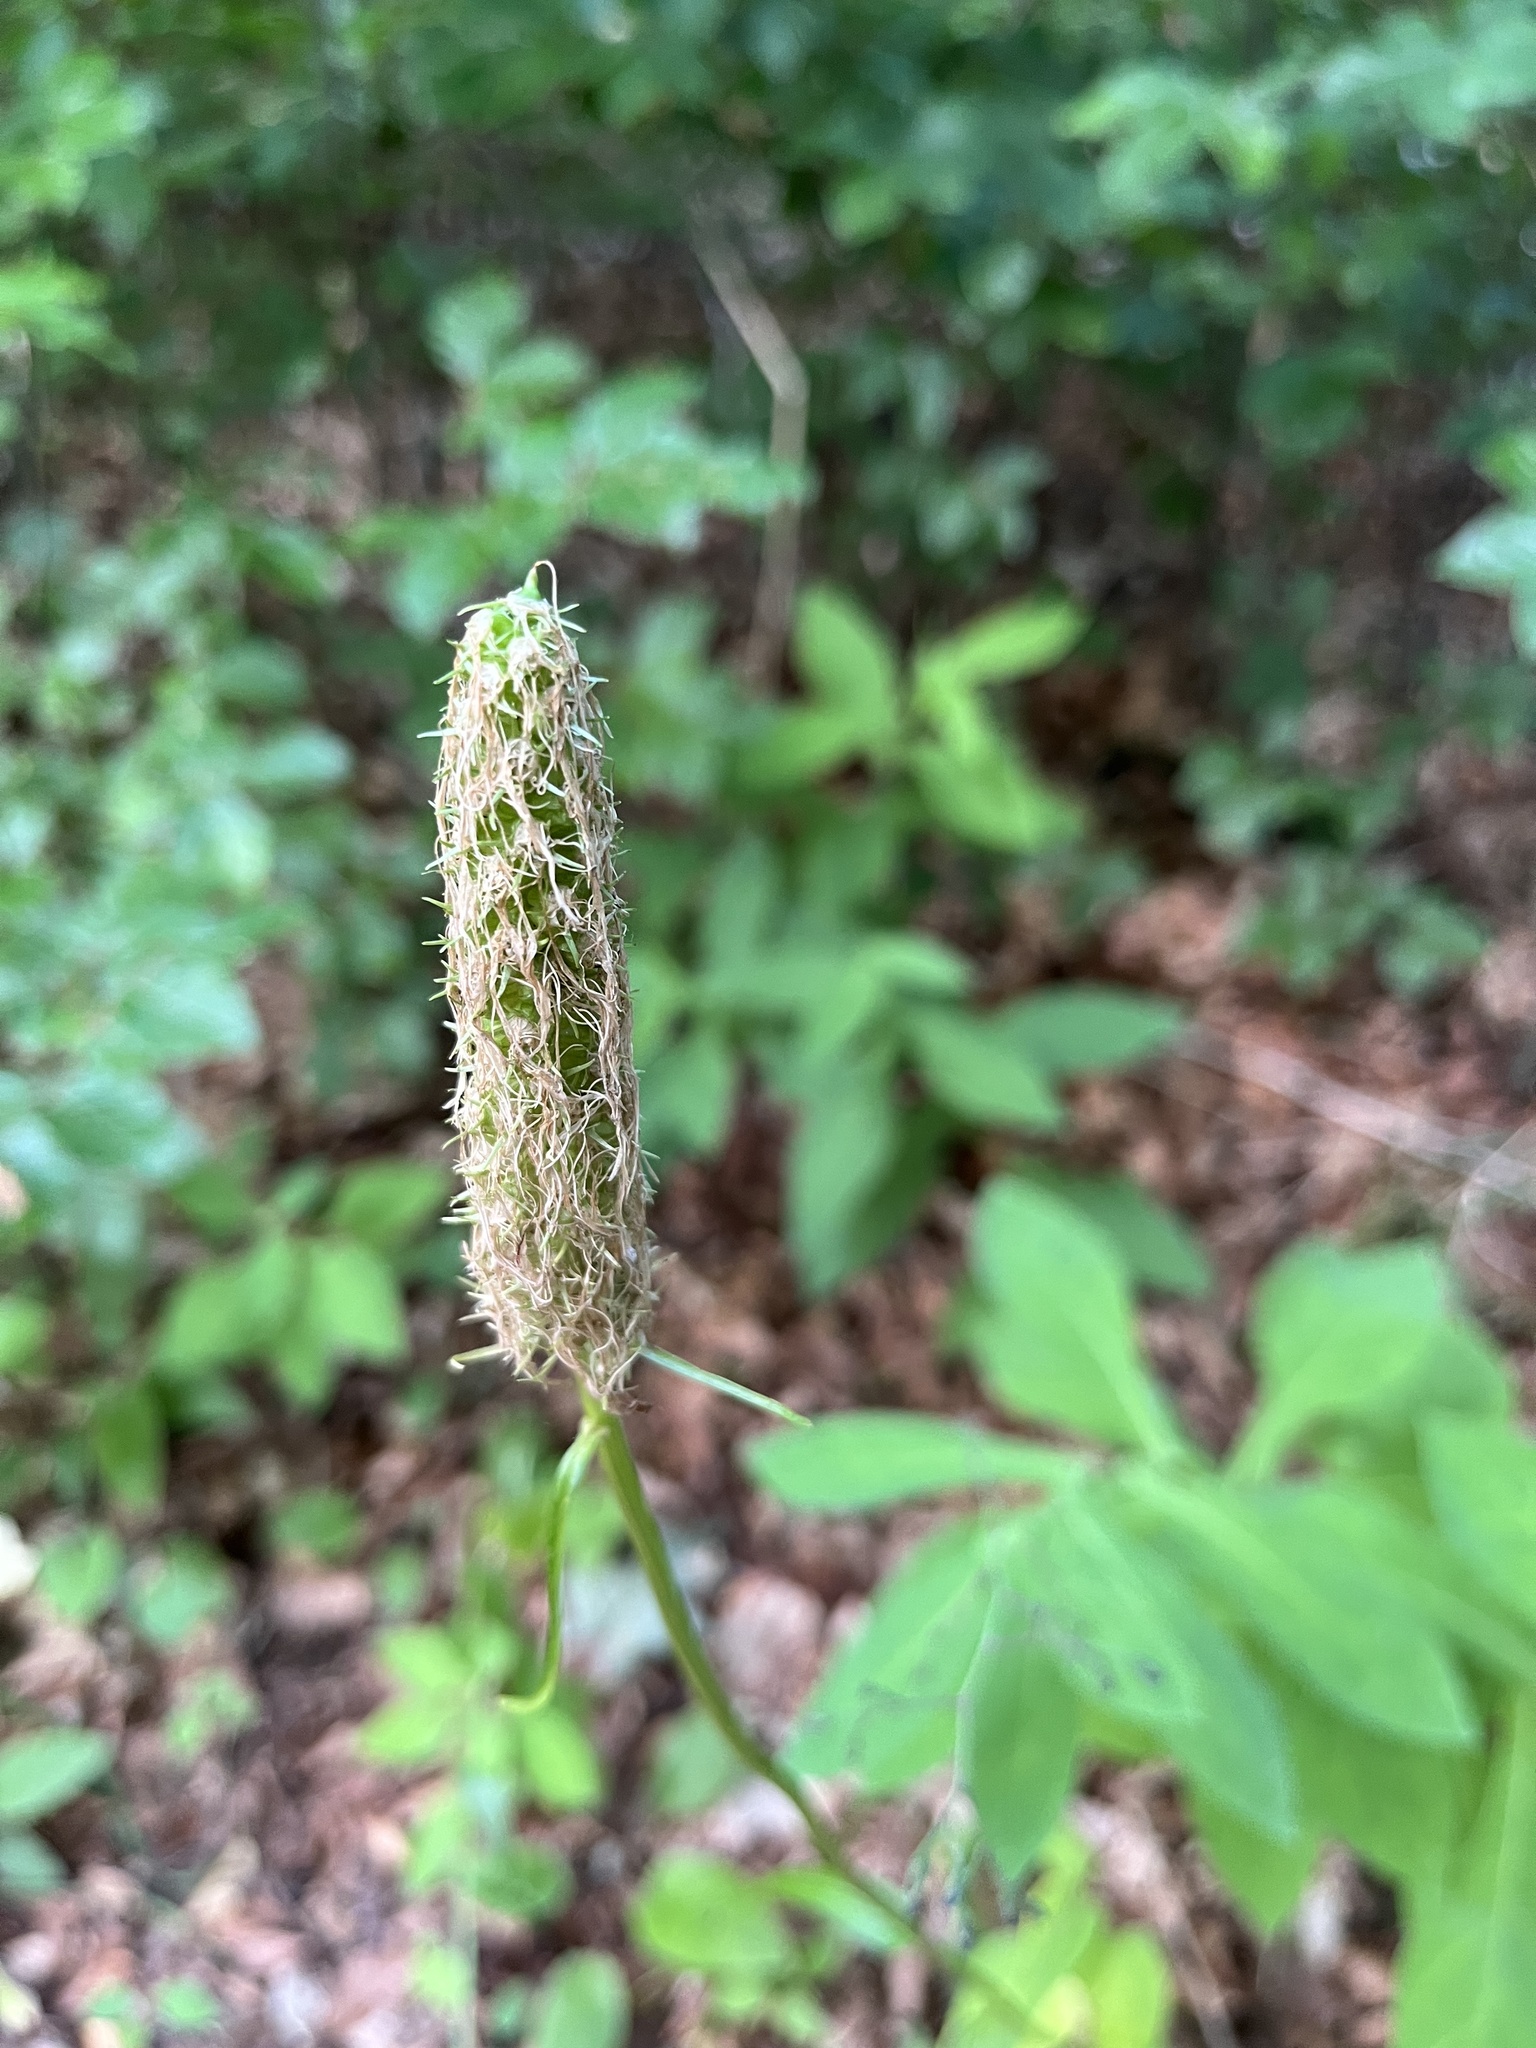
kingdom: Plantae
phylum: Tracheophyta
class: Magnoliopsida
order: Asterales
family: Campanulaceae
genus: Phyteuma
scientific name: Phyteuma spicatum
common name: Spiked rampion
